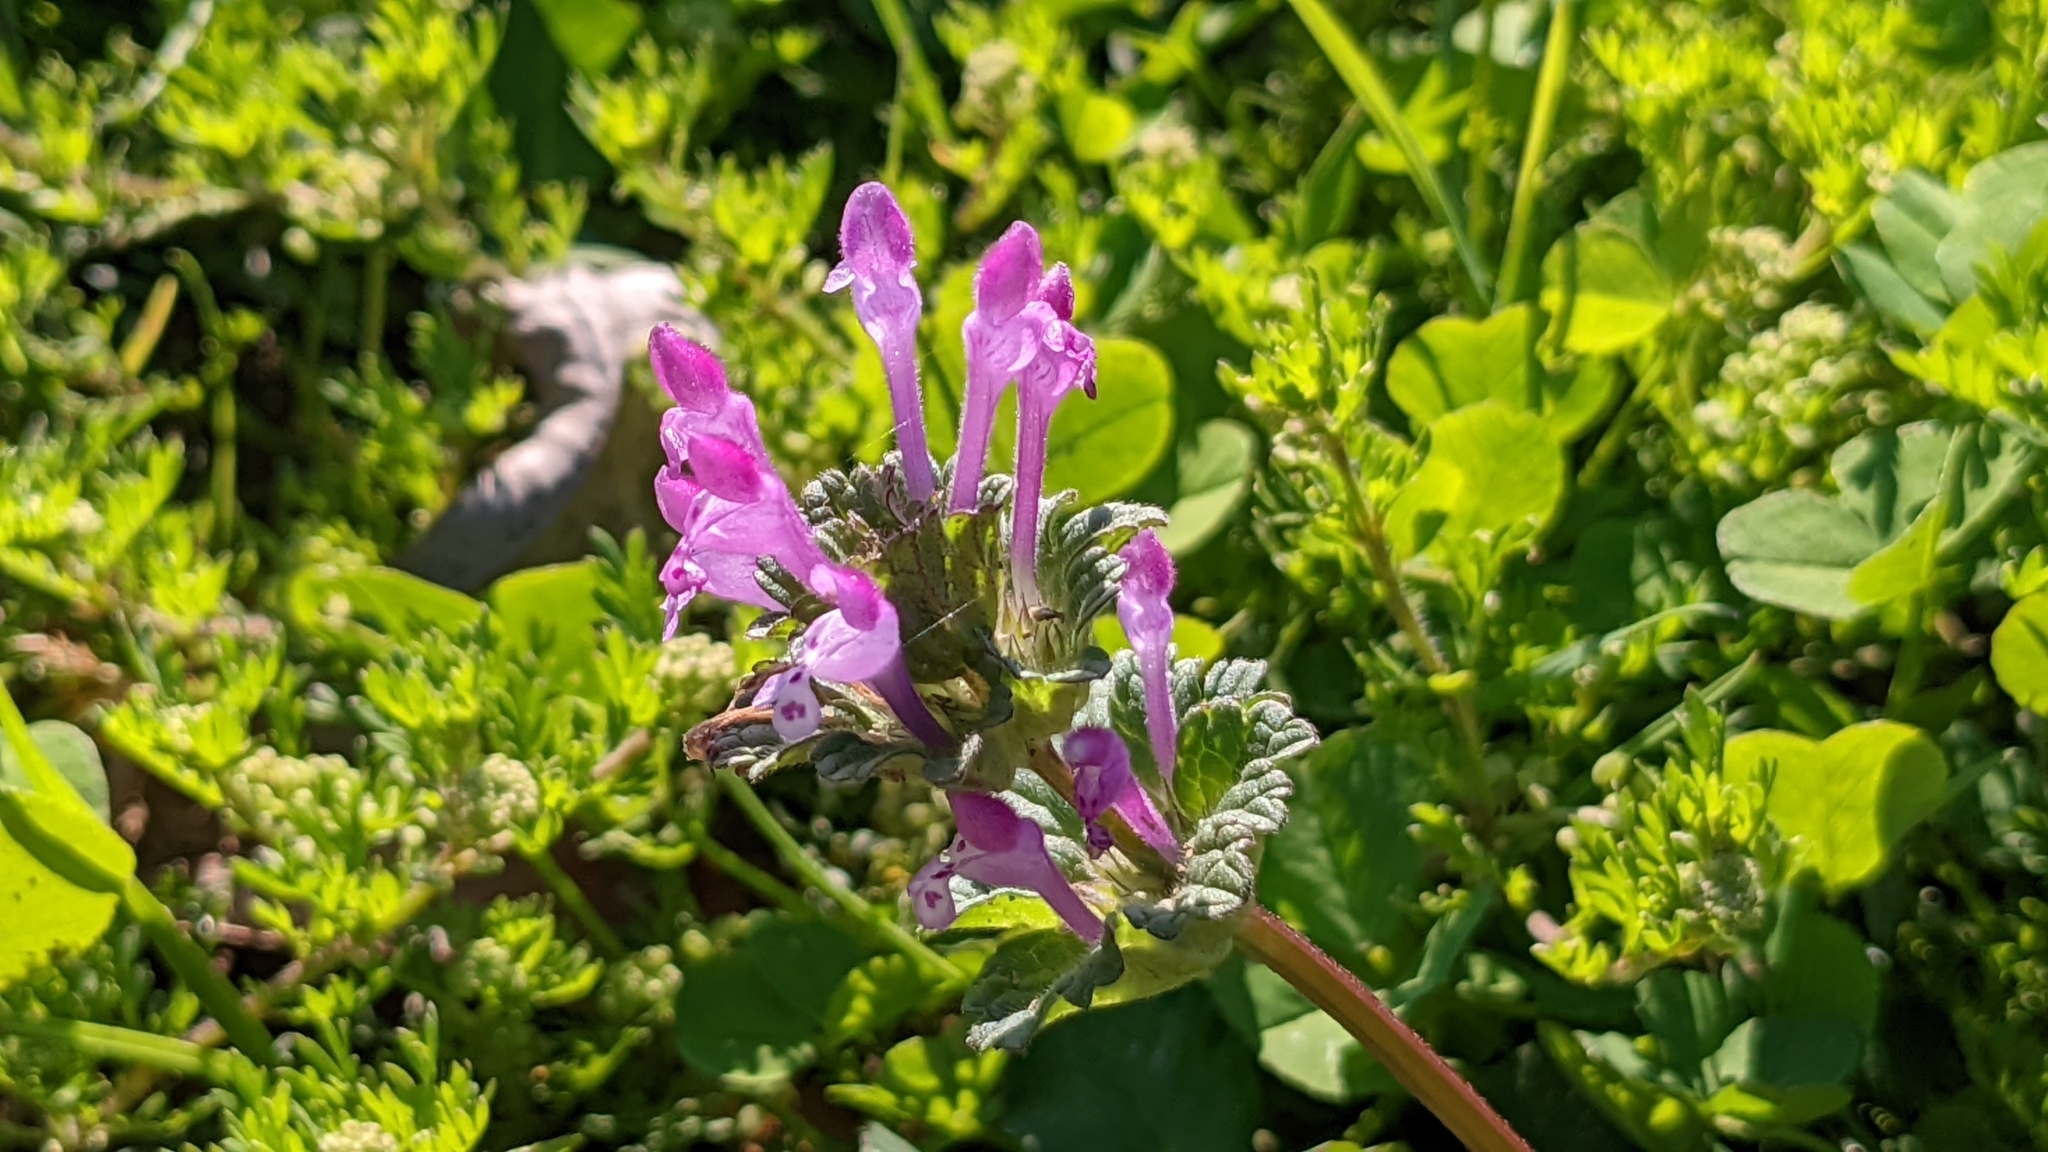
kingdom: Plantae
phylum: Tracheophyta
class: Magnoliopsida
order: Lamiales
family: Lamiaceae
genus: Lamium
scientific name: Lamium amplexicaule
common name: Henbit dead-nettle
